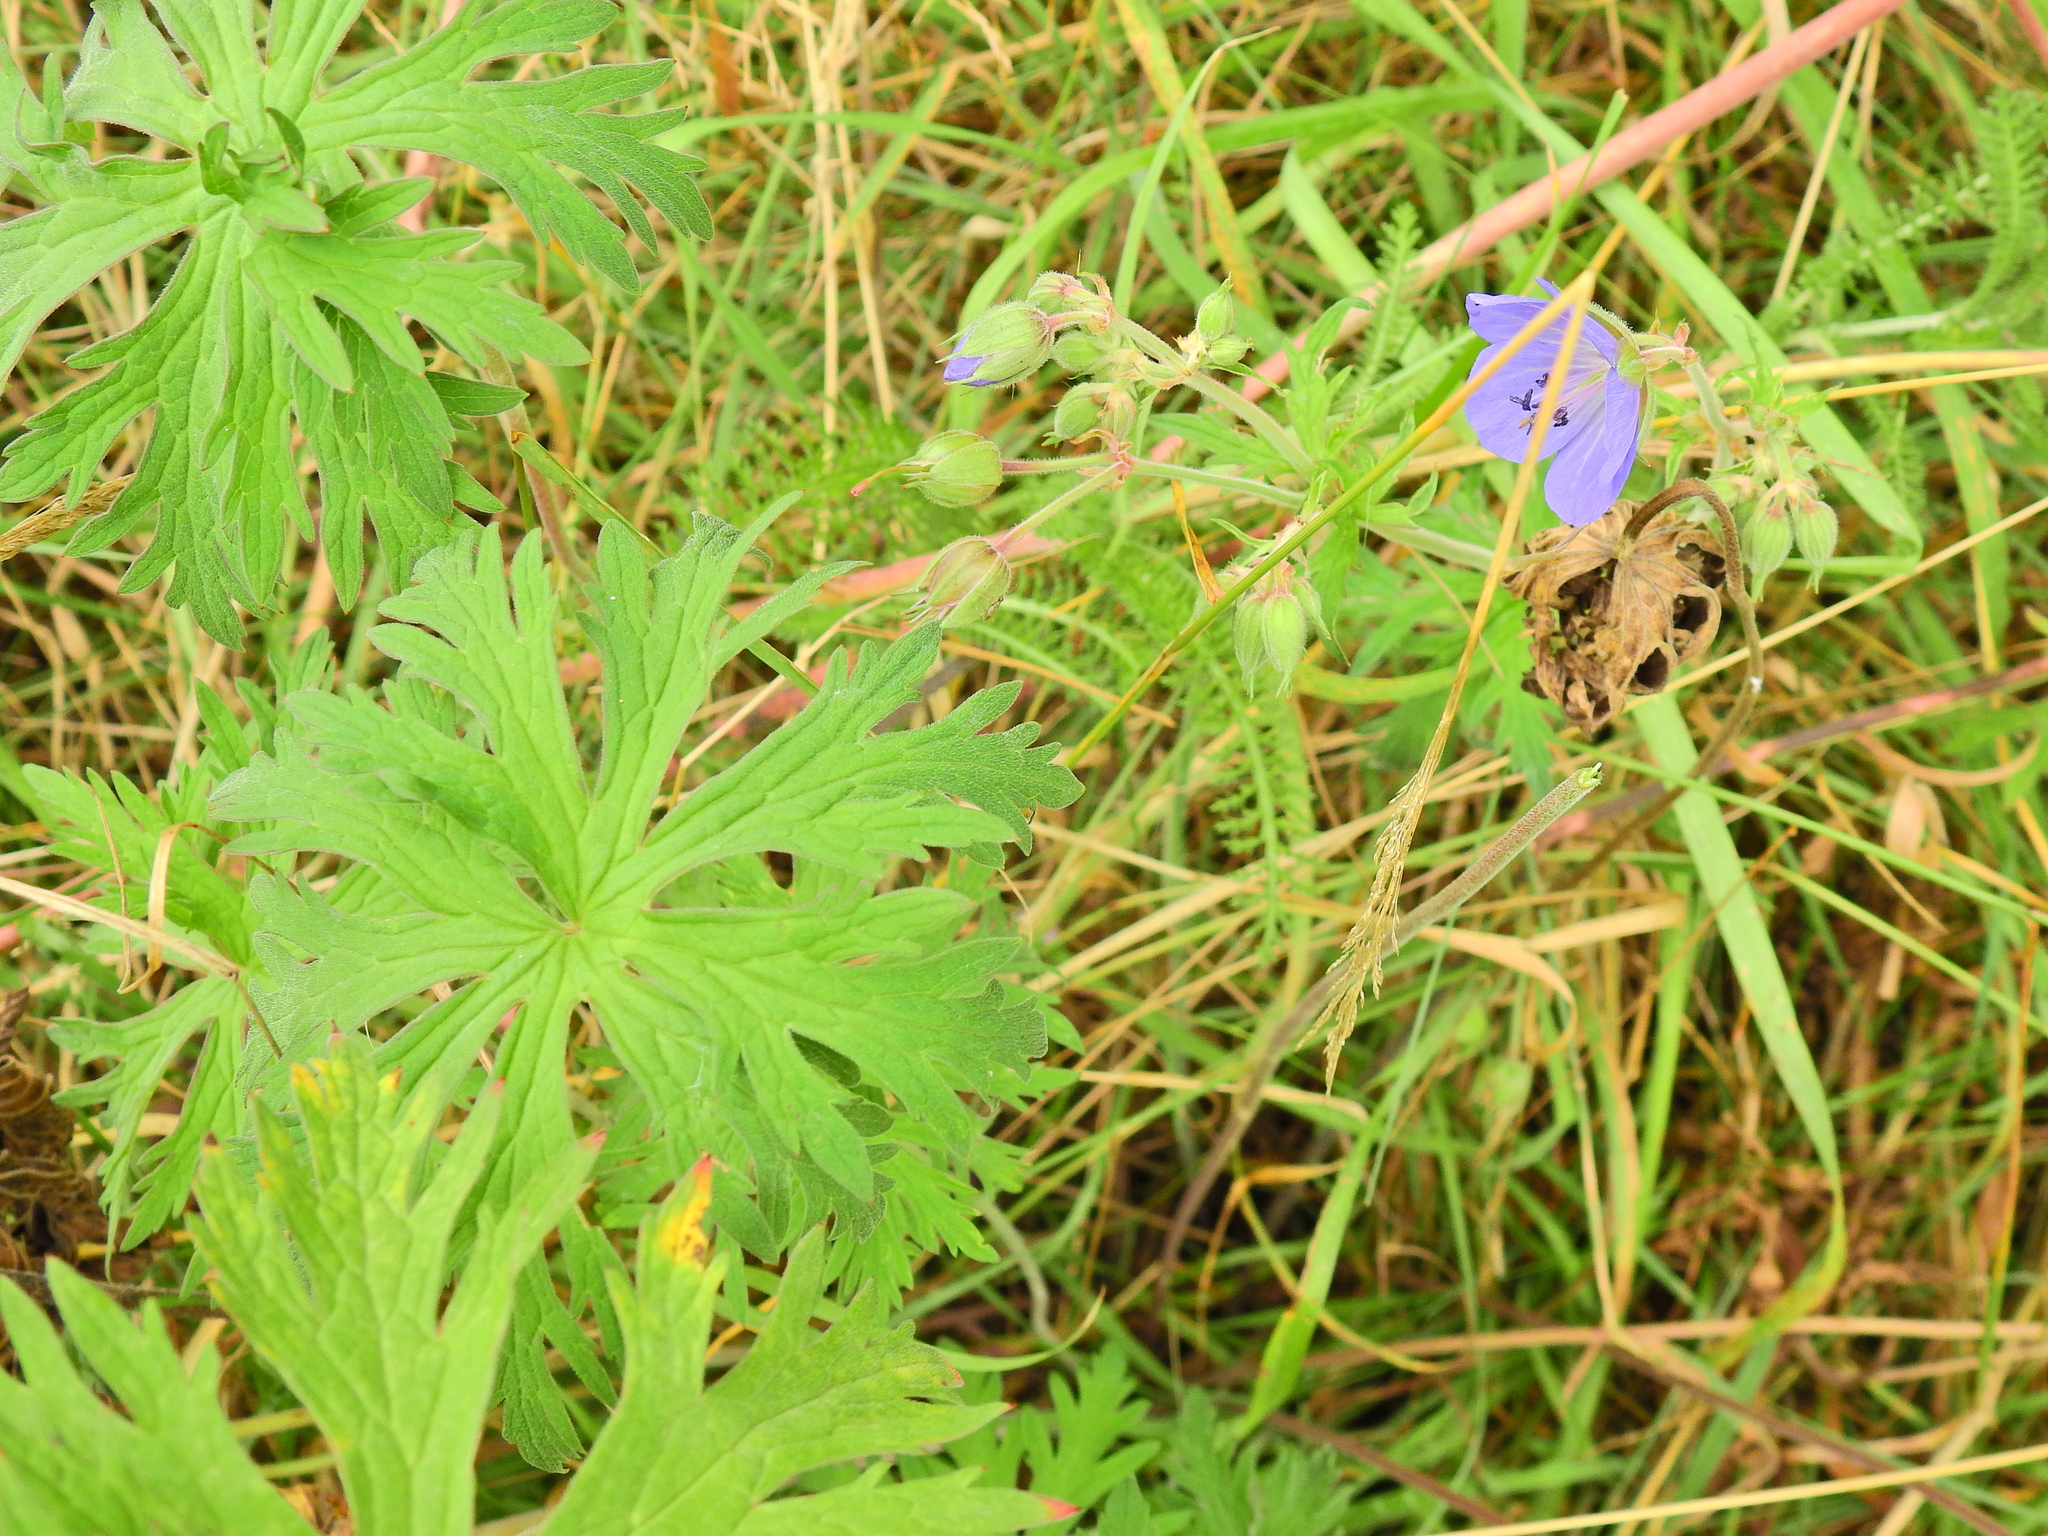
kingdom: Plantae
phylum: Tracheophyta
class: Magnoliopsida
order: Geraniales
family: Geraniaceae
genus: Geranium
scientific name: Geranium pratense
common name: Meadow crane's-bill
